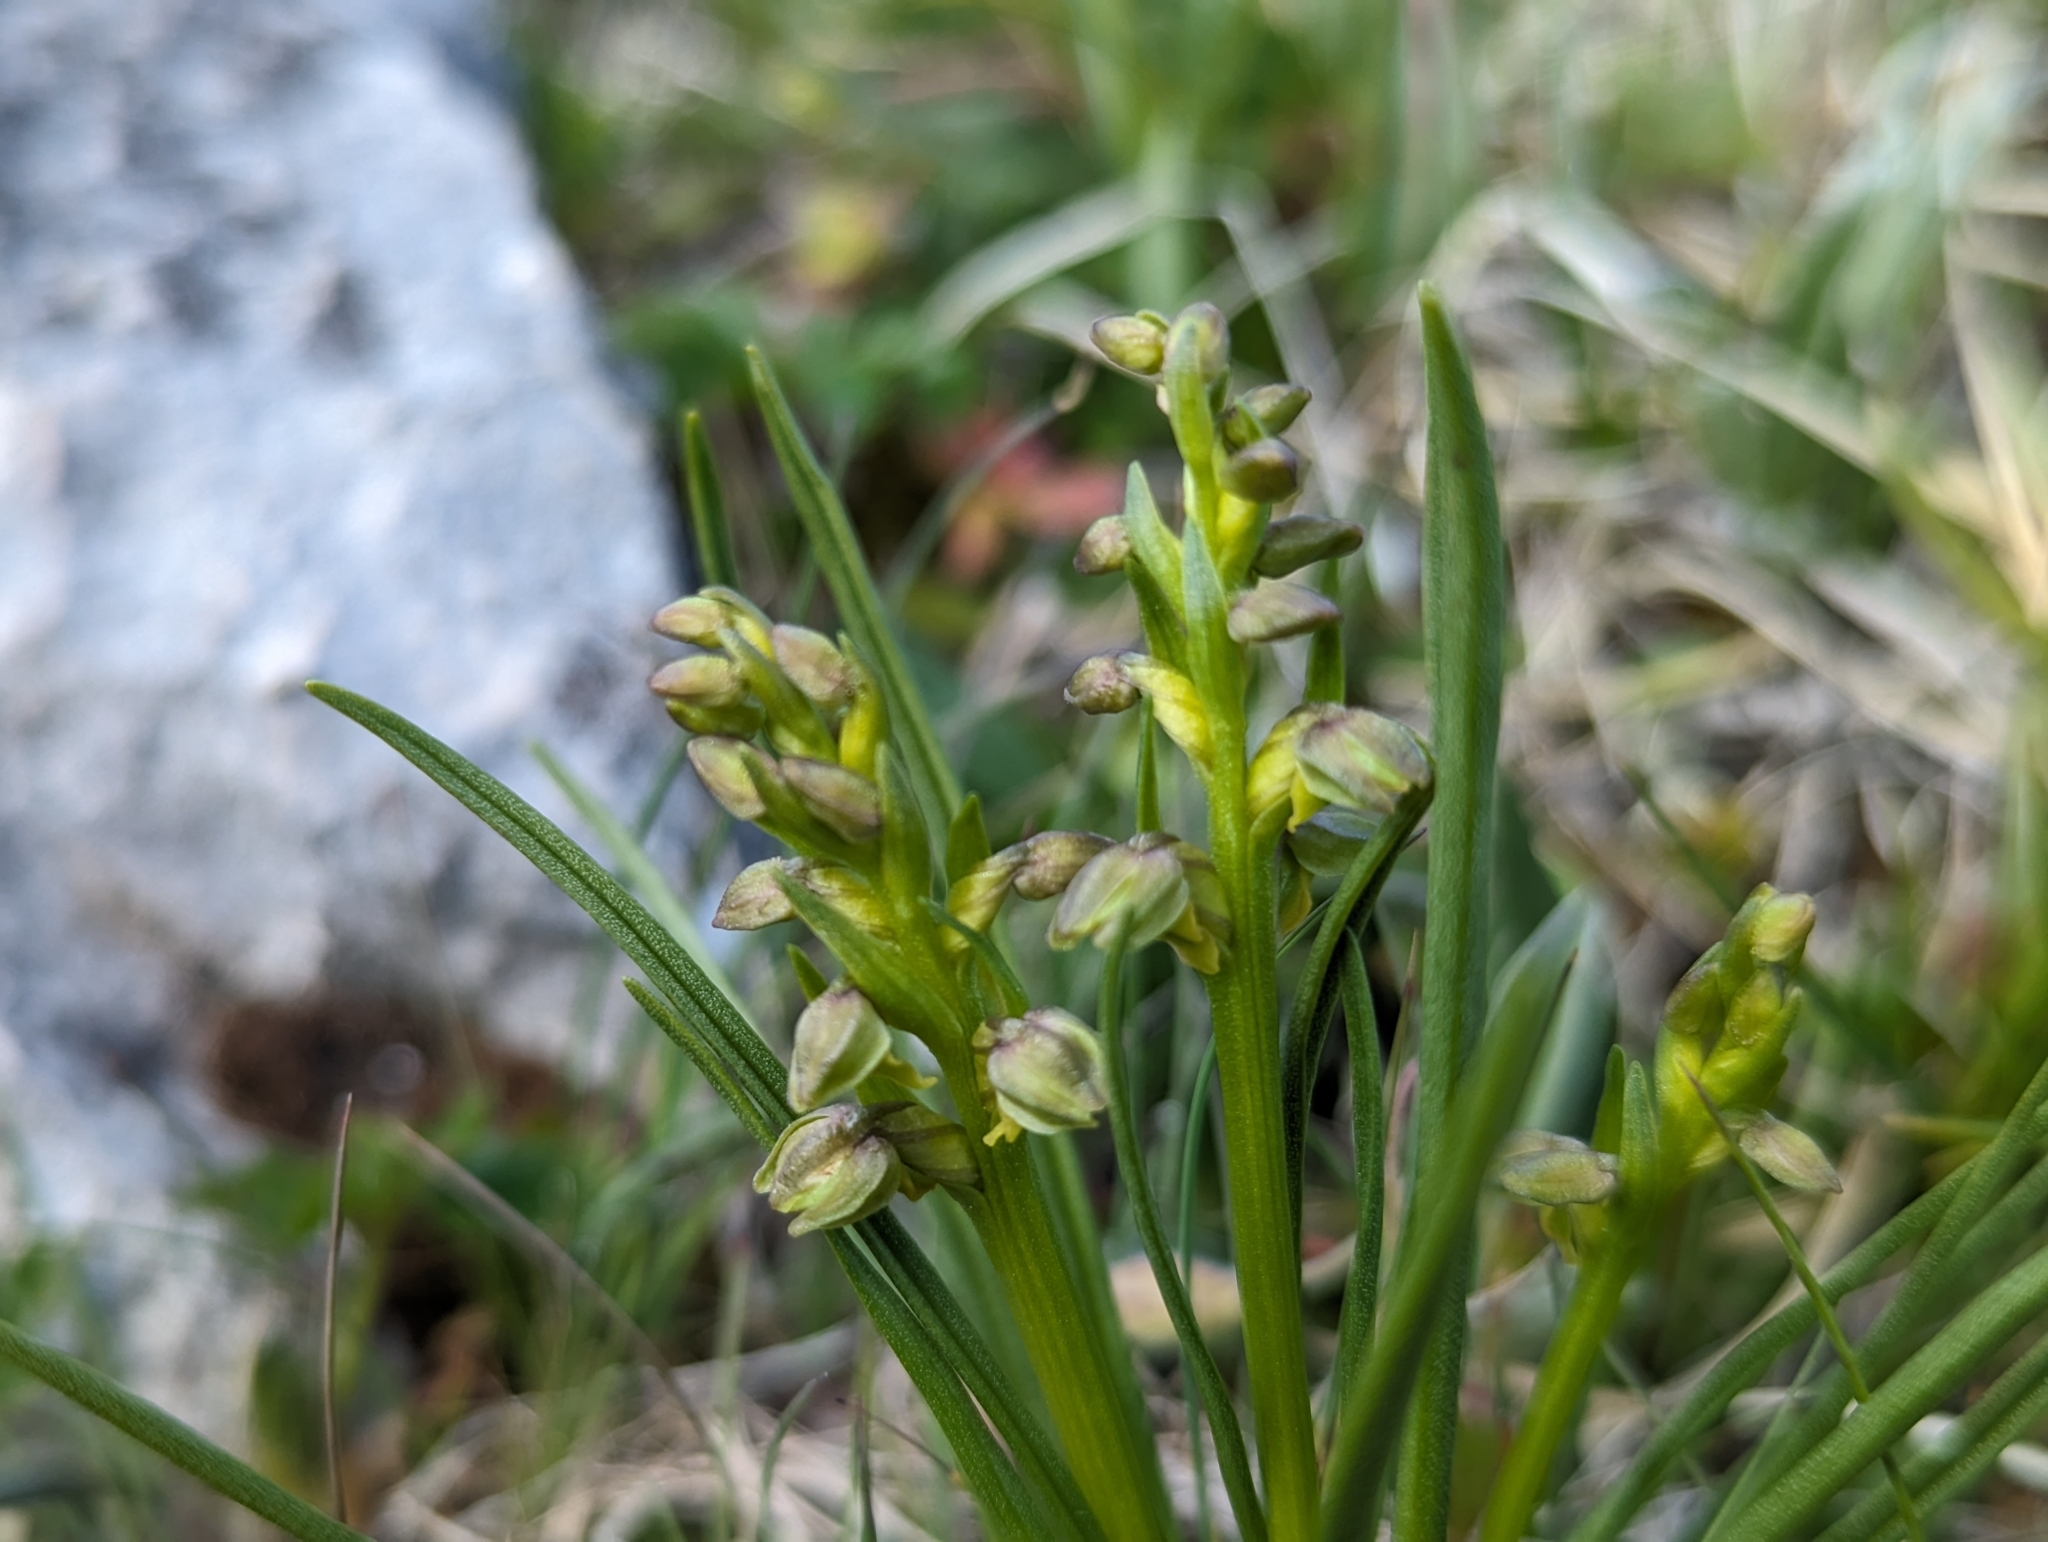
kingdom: Plantae
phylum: Tracheophyta
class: Liliopsida
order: Asparagales
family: Orchidaceae
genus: Chamorchis
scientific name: Chamorchis alpina
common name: Alpine chamorchis
